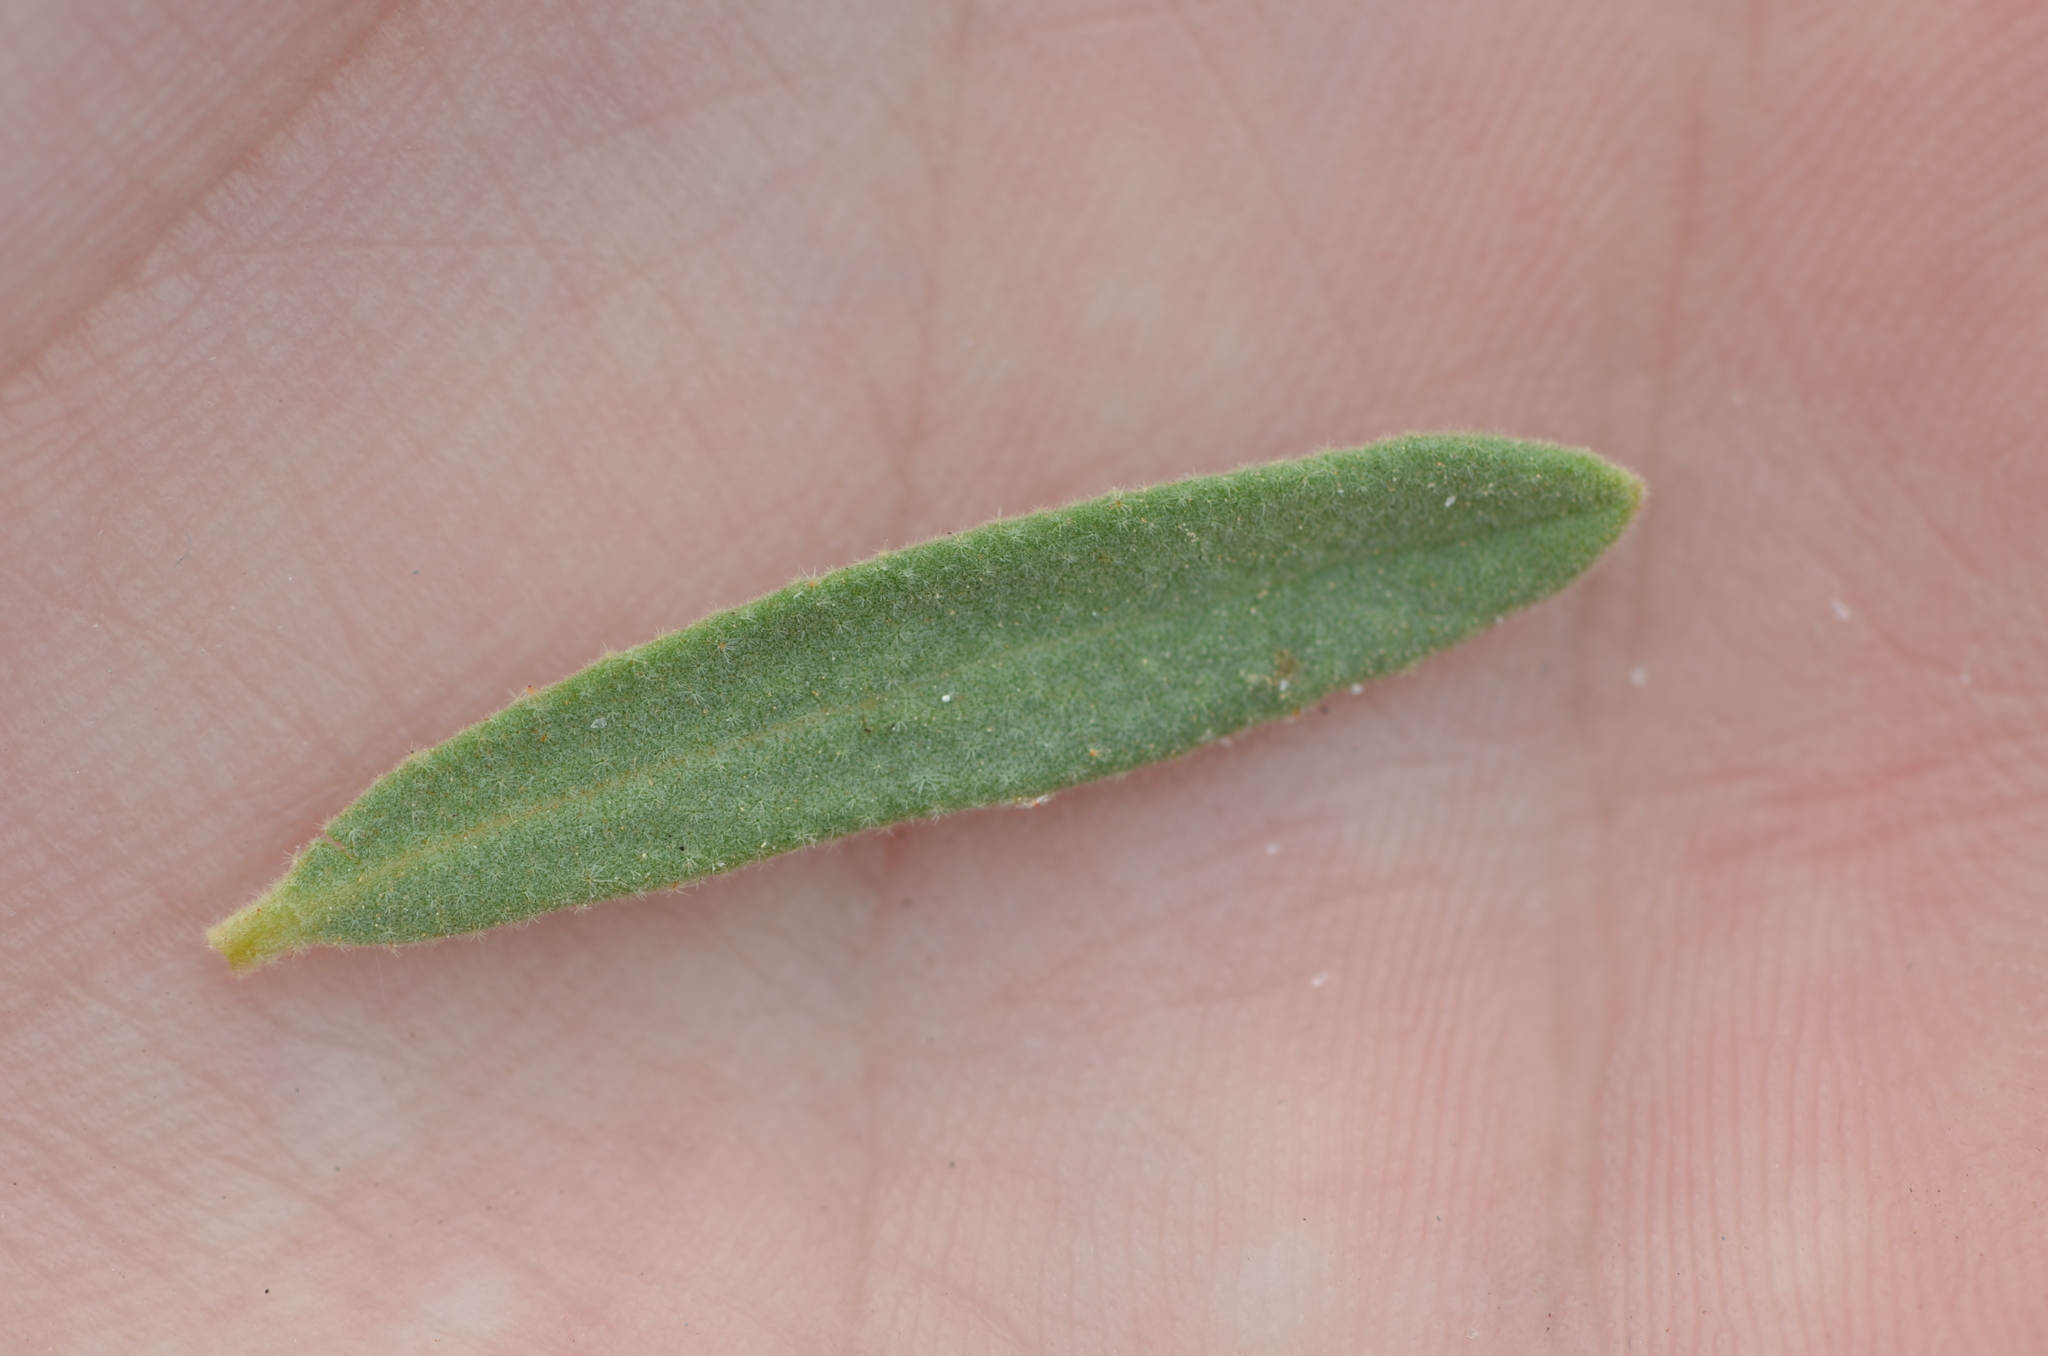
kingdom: Plantae
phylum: Tracheophyta
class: Magnoliopsida
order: Malvales
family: Cistaceae
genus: Crocanthemum
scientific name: Crocanthemum nashii
